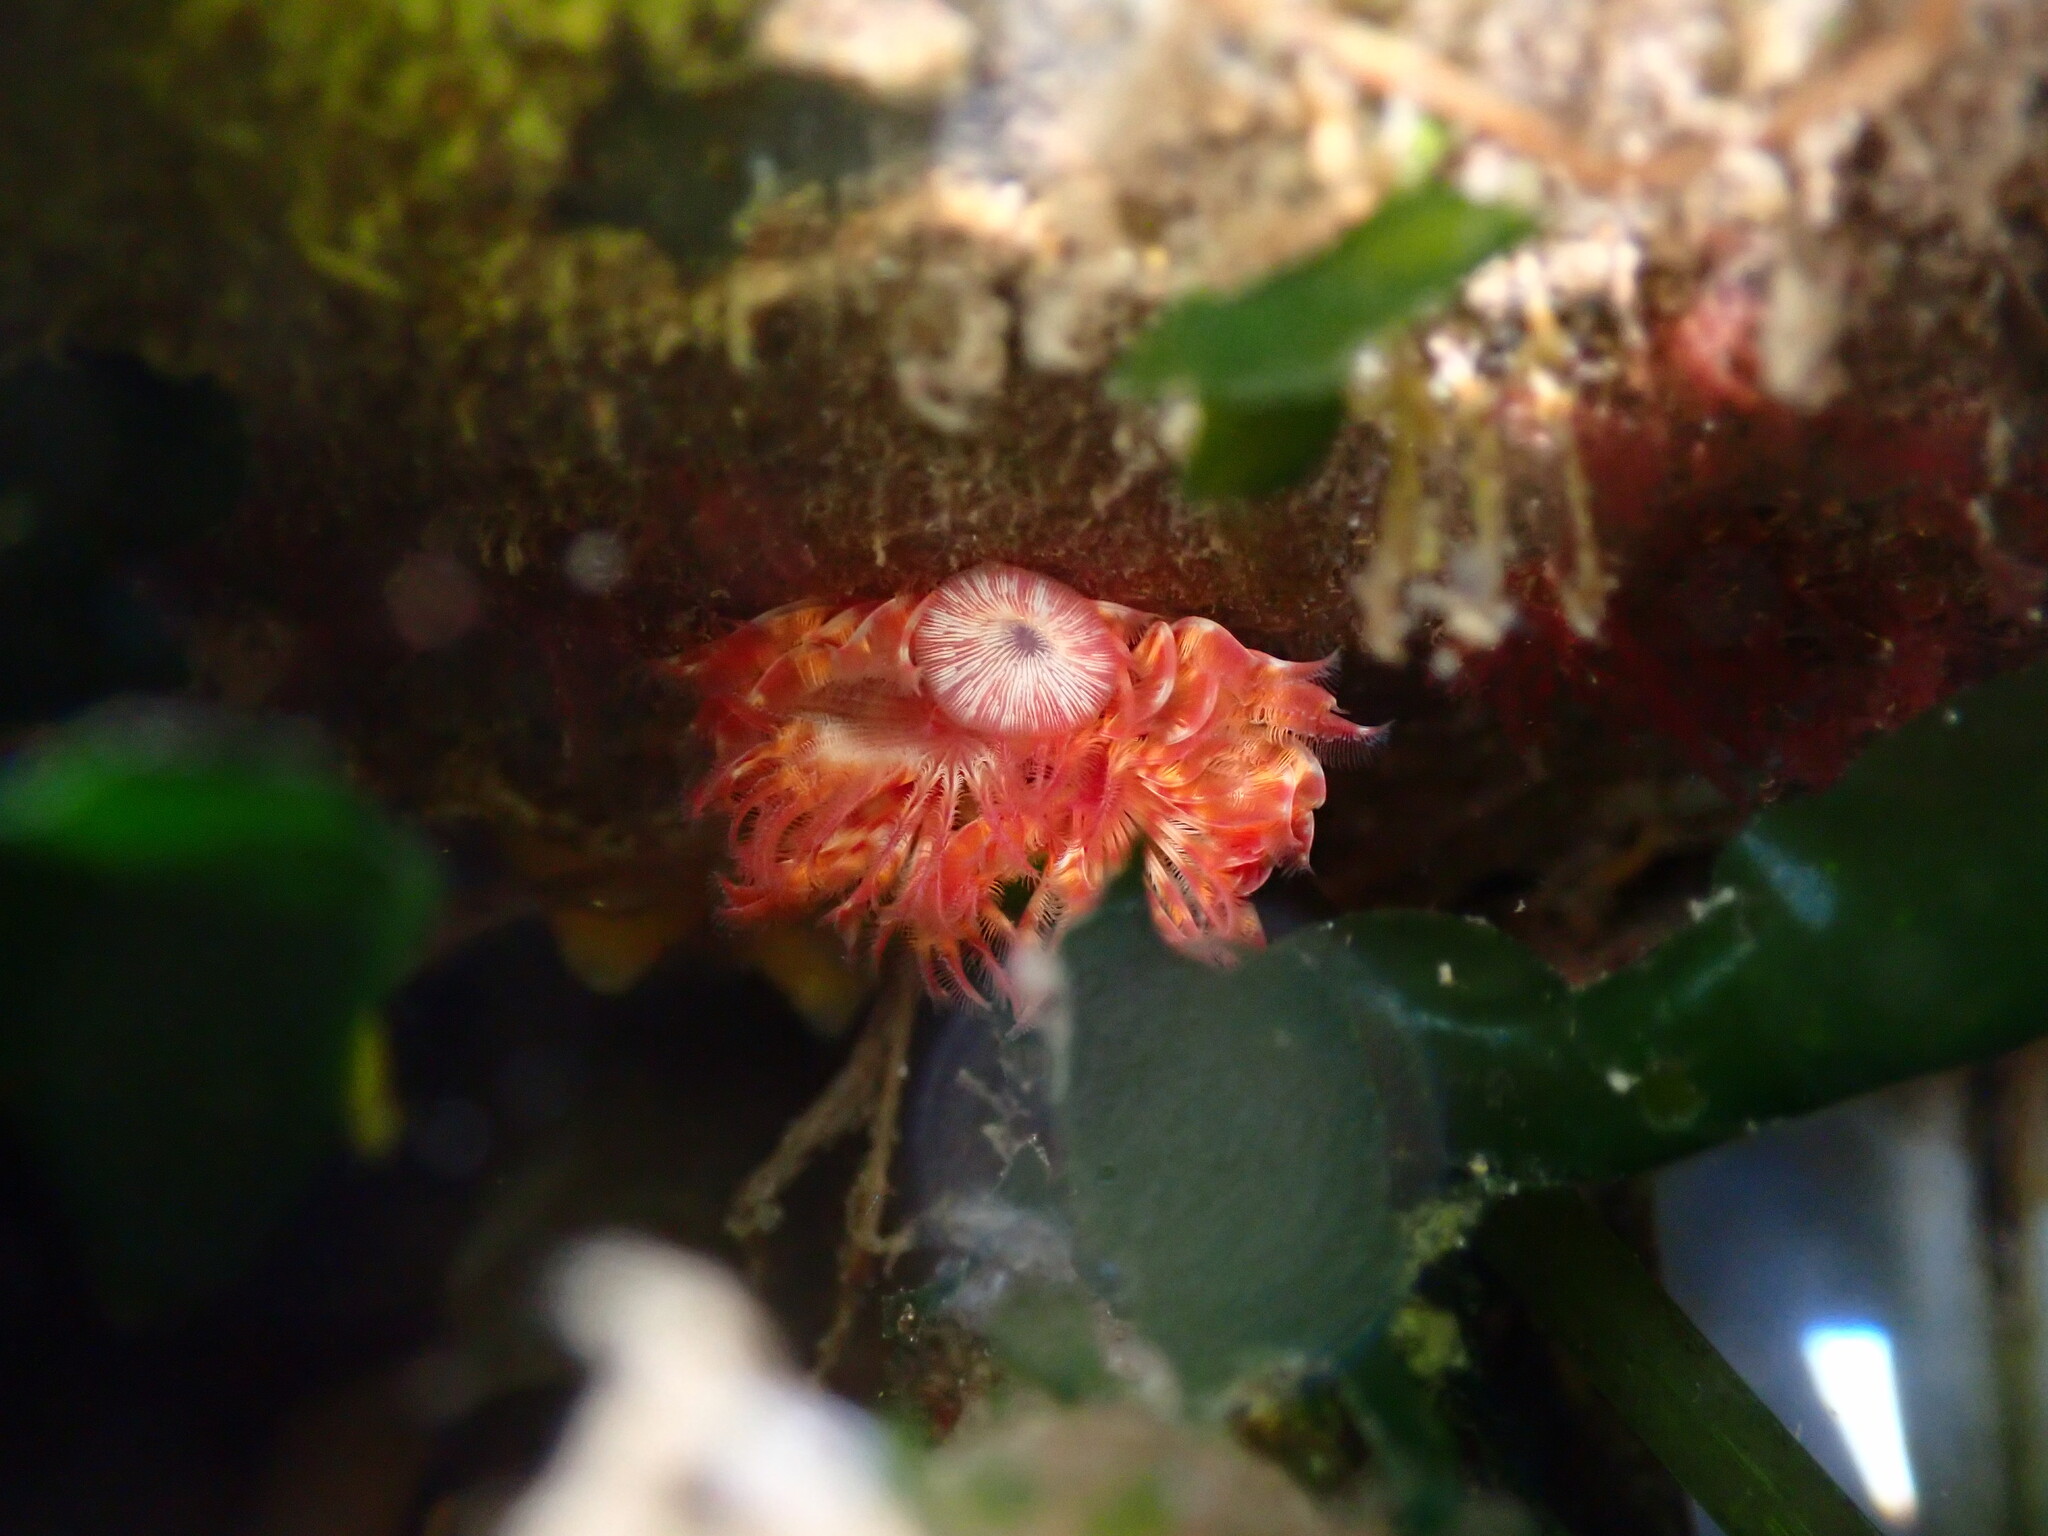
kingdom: Animalia
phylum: Annelida
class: Polychaeta
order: Sabellida
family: Serpulidae
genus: Serpula
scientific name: Serpula columbiana
